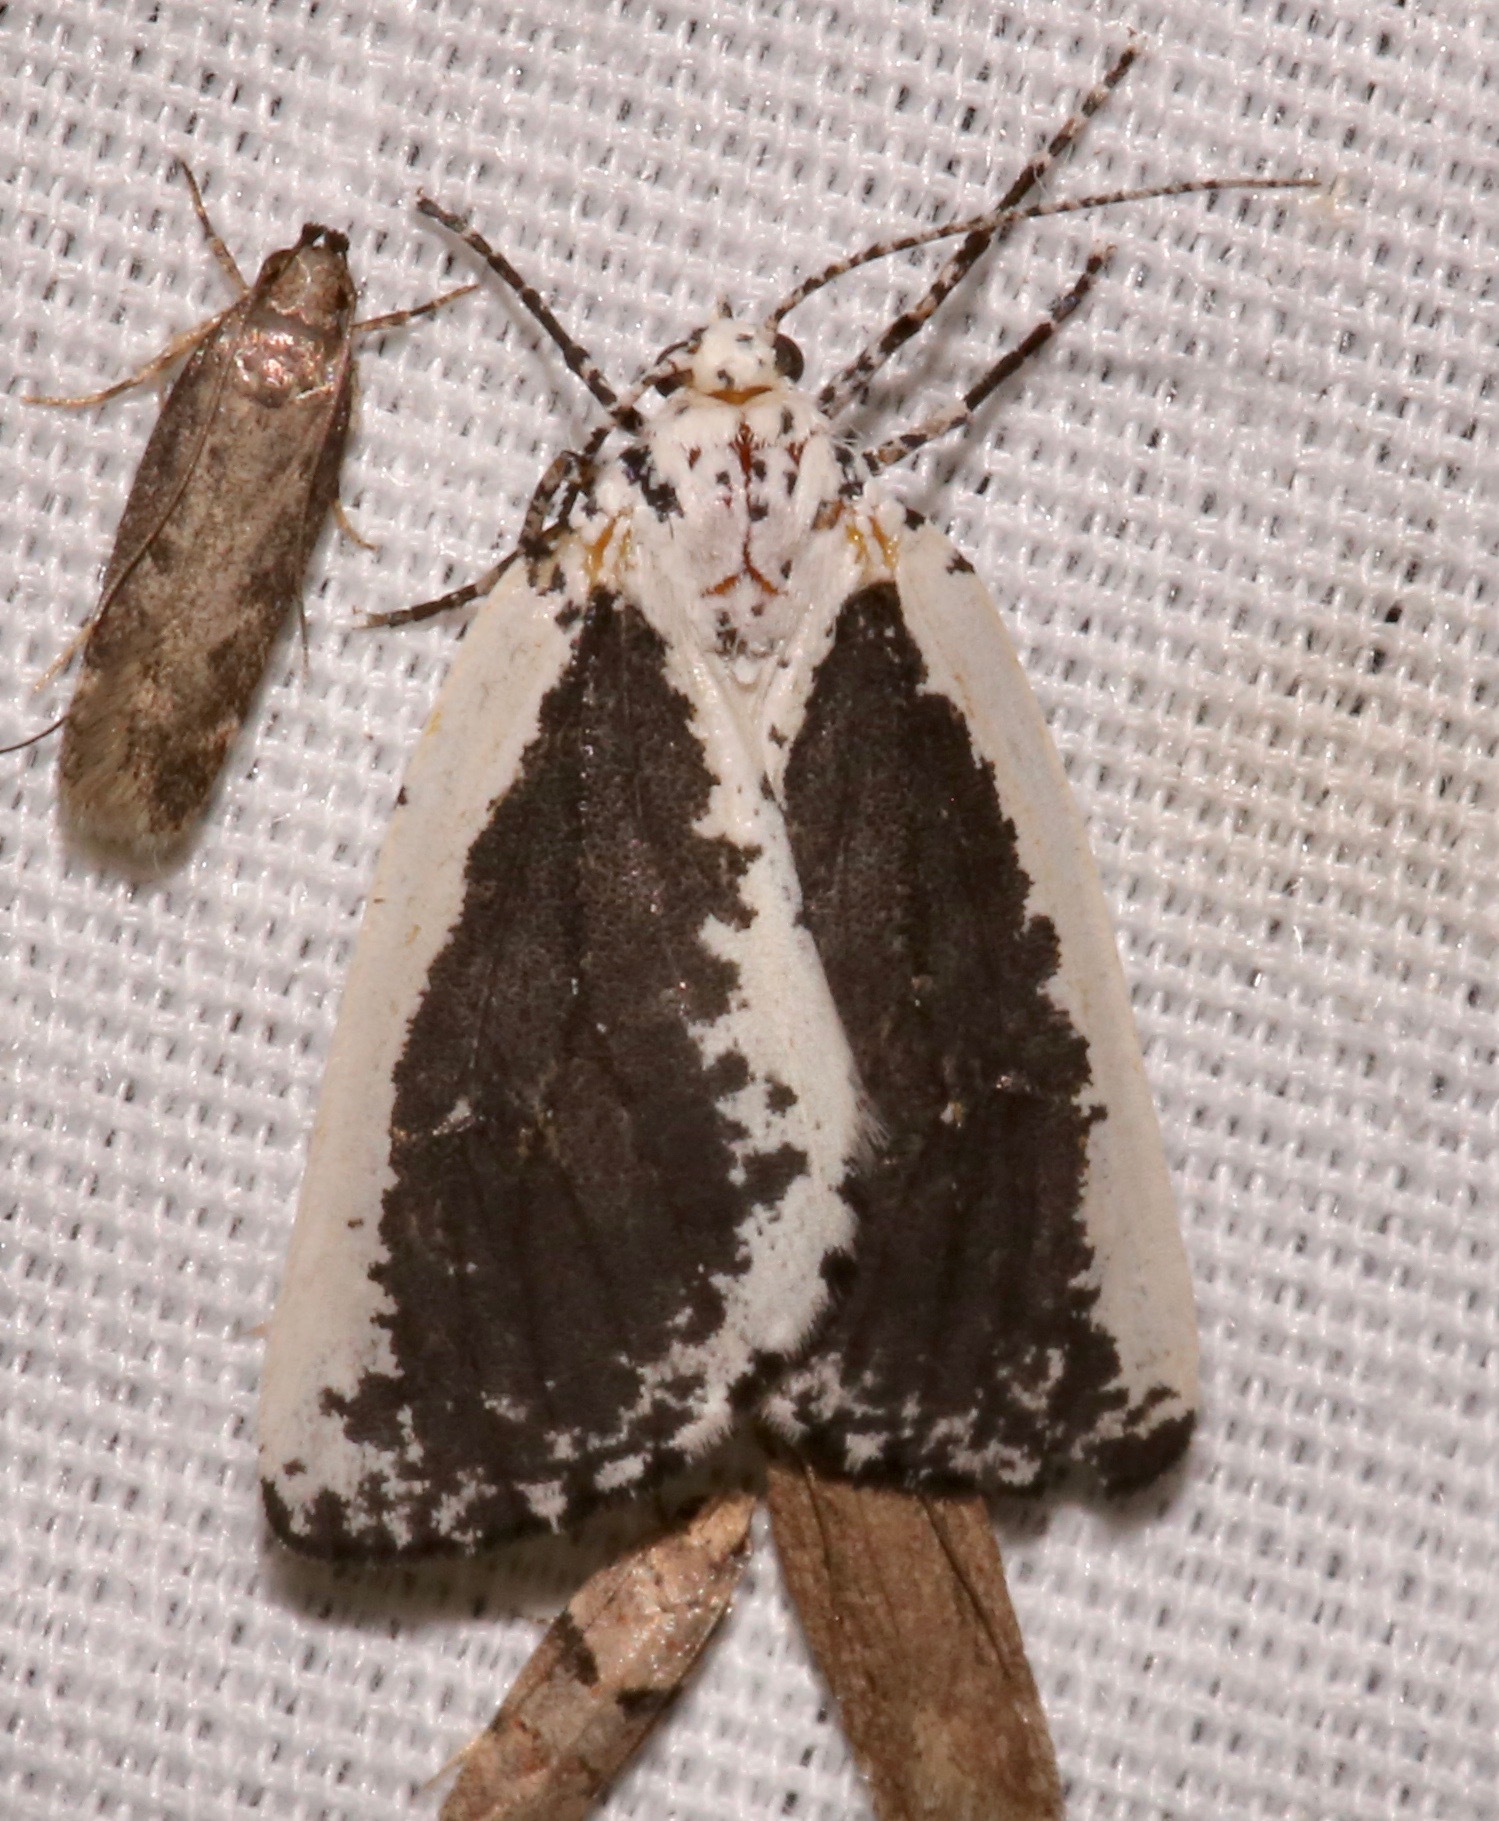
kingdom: Animalia
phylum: Arthropoda
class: Insecta
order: Lepidoptera
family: Geometridae
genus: Eucaterva
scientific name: Eucaterva variaria
